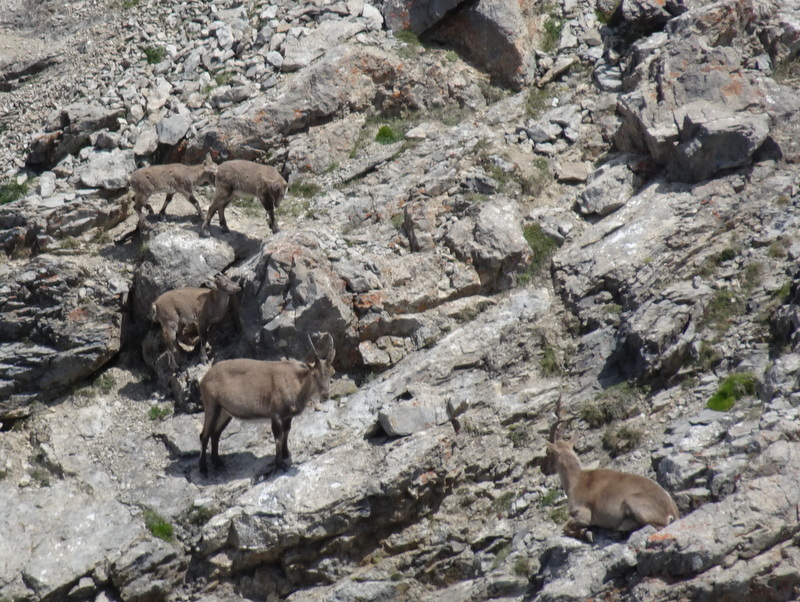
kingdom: Animalia
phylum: Chordata
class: Mammalia
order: Artiodactyla
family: Bovidae
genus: Capra
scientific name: Capra ibex
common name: Alpine ibex
